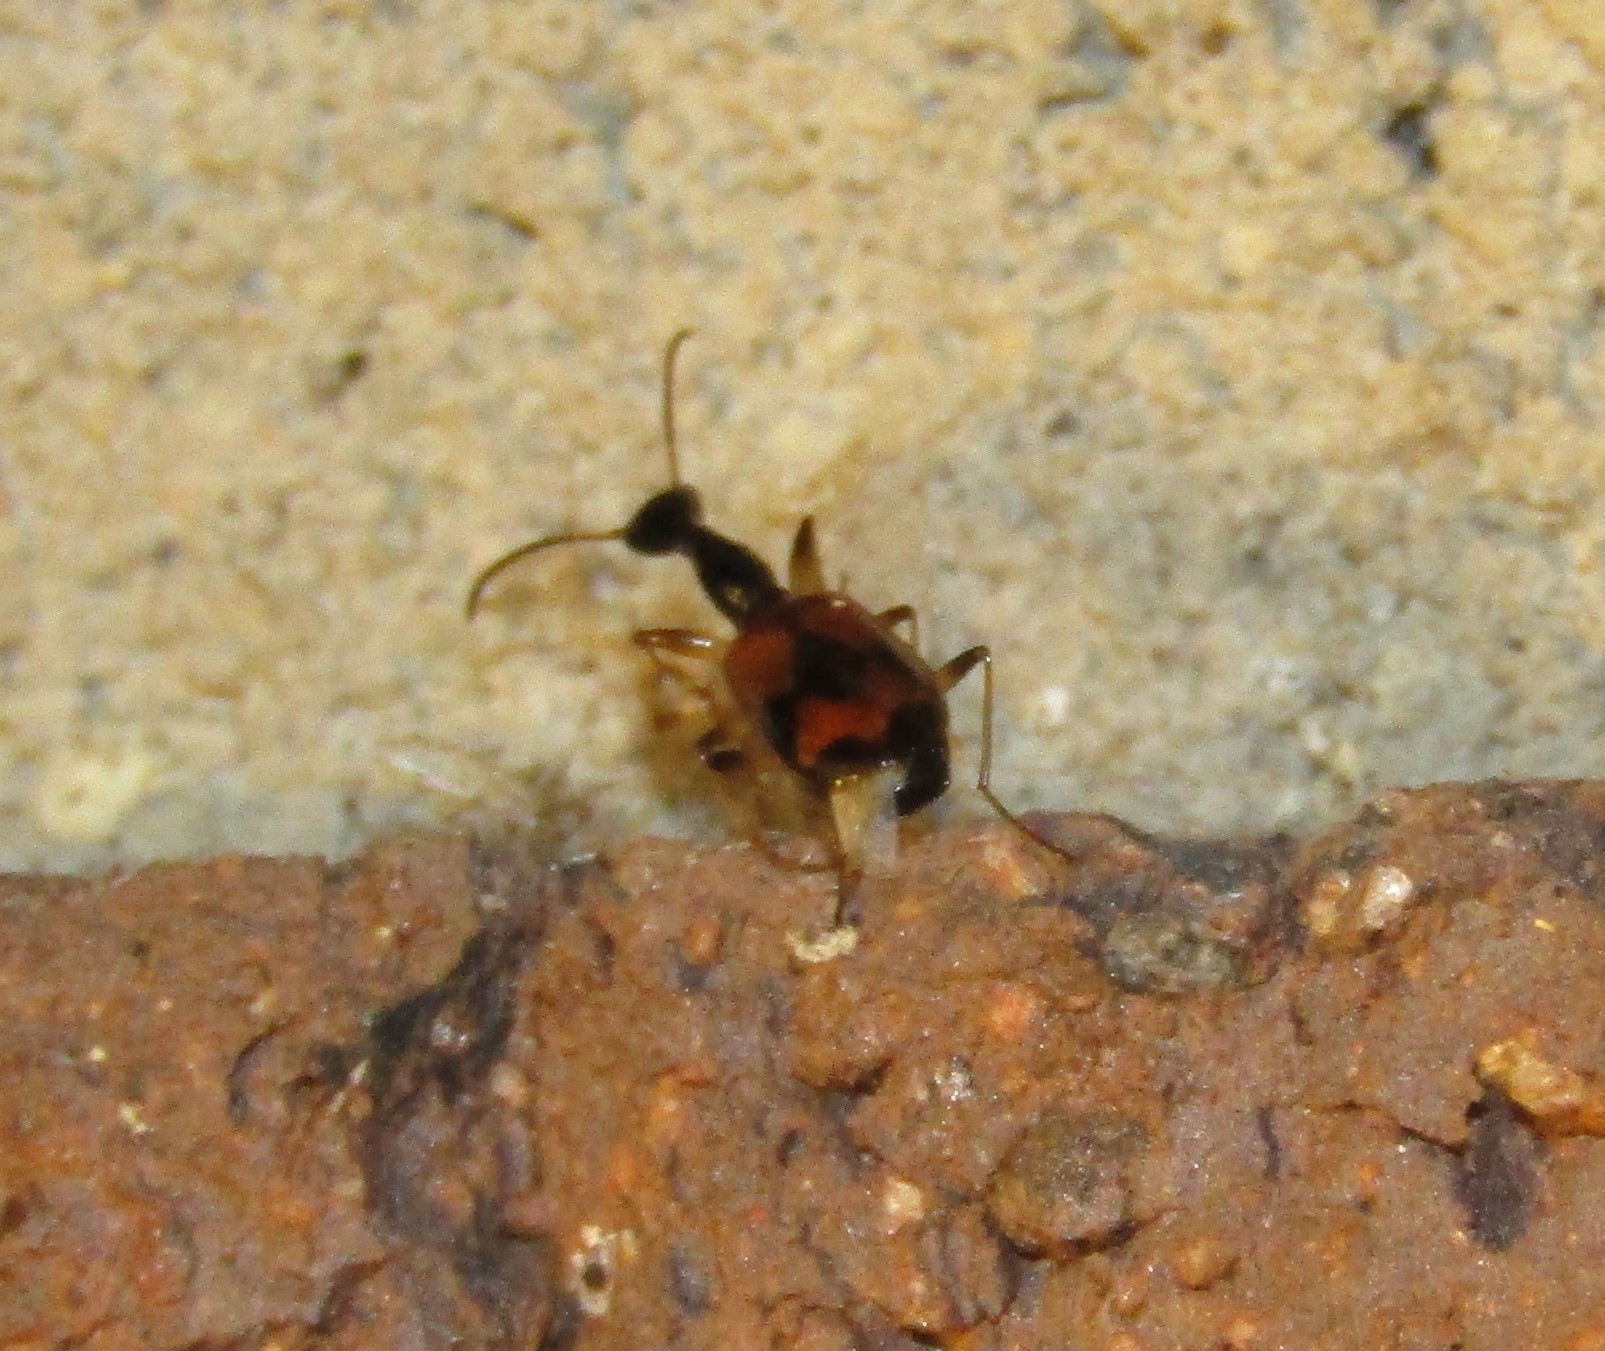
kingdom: Animalia
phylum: Arthropoda
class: Insecta
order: Coleoptera
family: Carabidae
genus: Colliuris
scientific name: Colliuris pensylvanica
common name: Long-necked ground beetle
